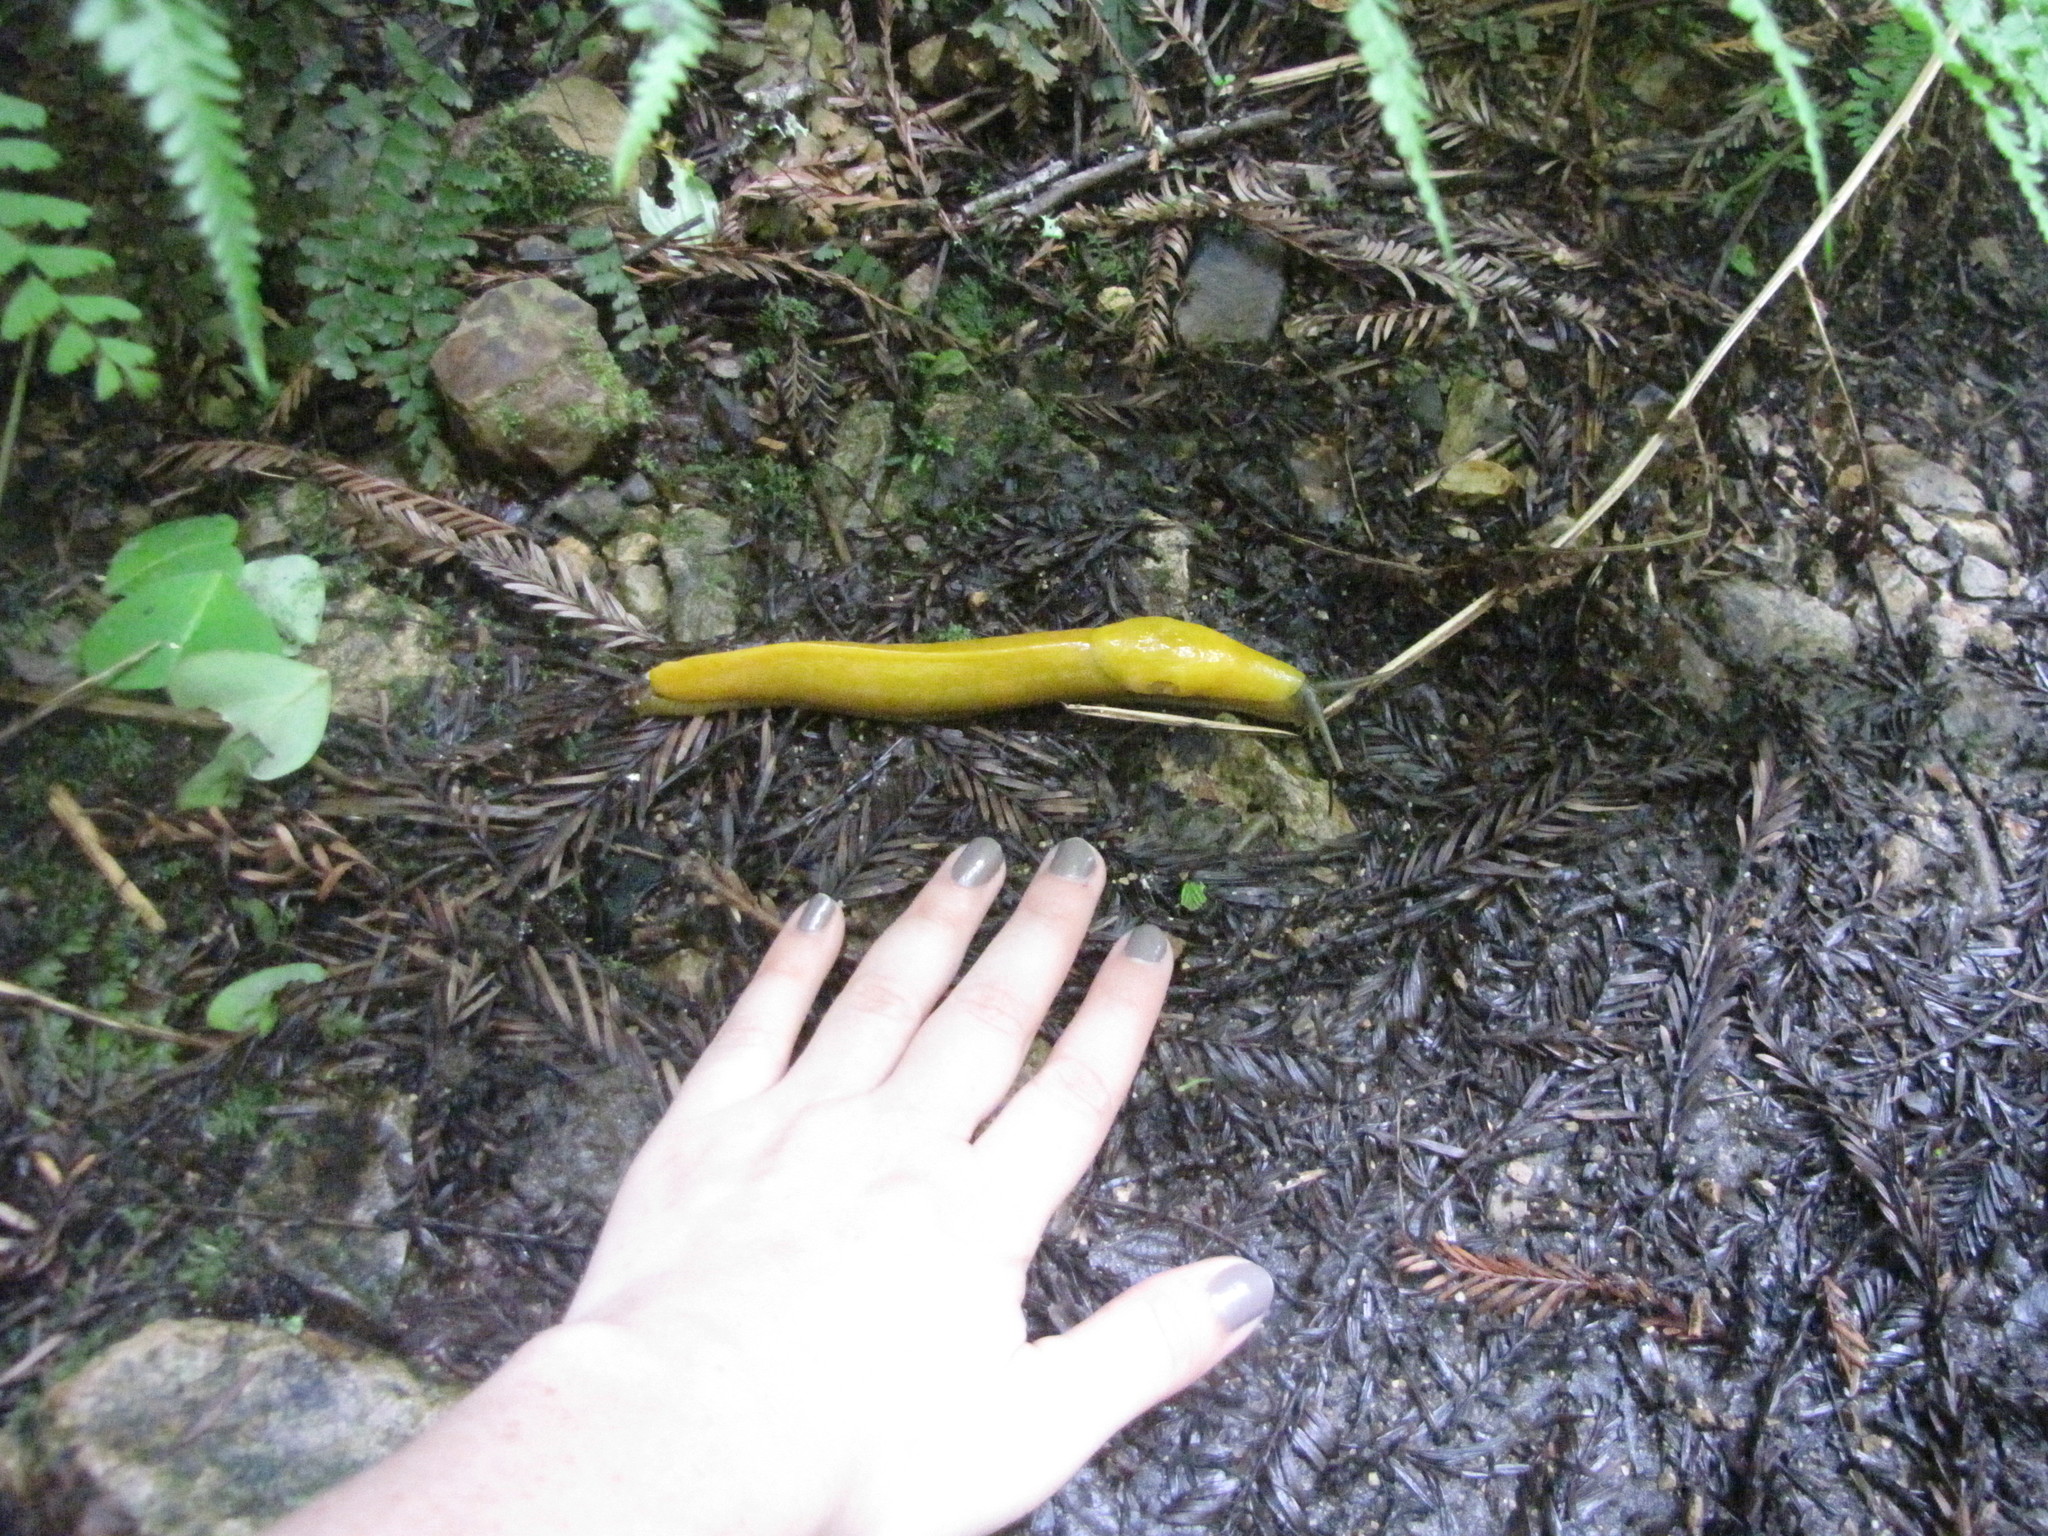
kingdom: Animalia
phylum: Mollusca
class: Gastropoda
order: Stylommatophora
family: Ariolimacidae
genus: Ariolimax
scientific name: Ariolimax californicus
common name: California banana slug
